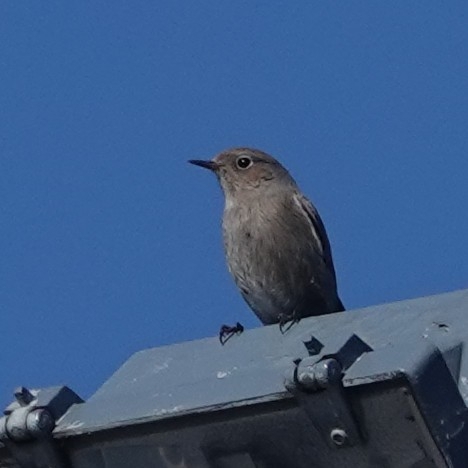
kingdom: Animalia
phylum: Chordata
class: Aves
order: Passeriformes
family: Muscicapidae
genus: Phoenicurus
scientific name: Phoenicurus ochruros
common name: Black redstart
